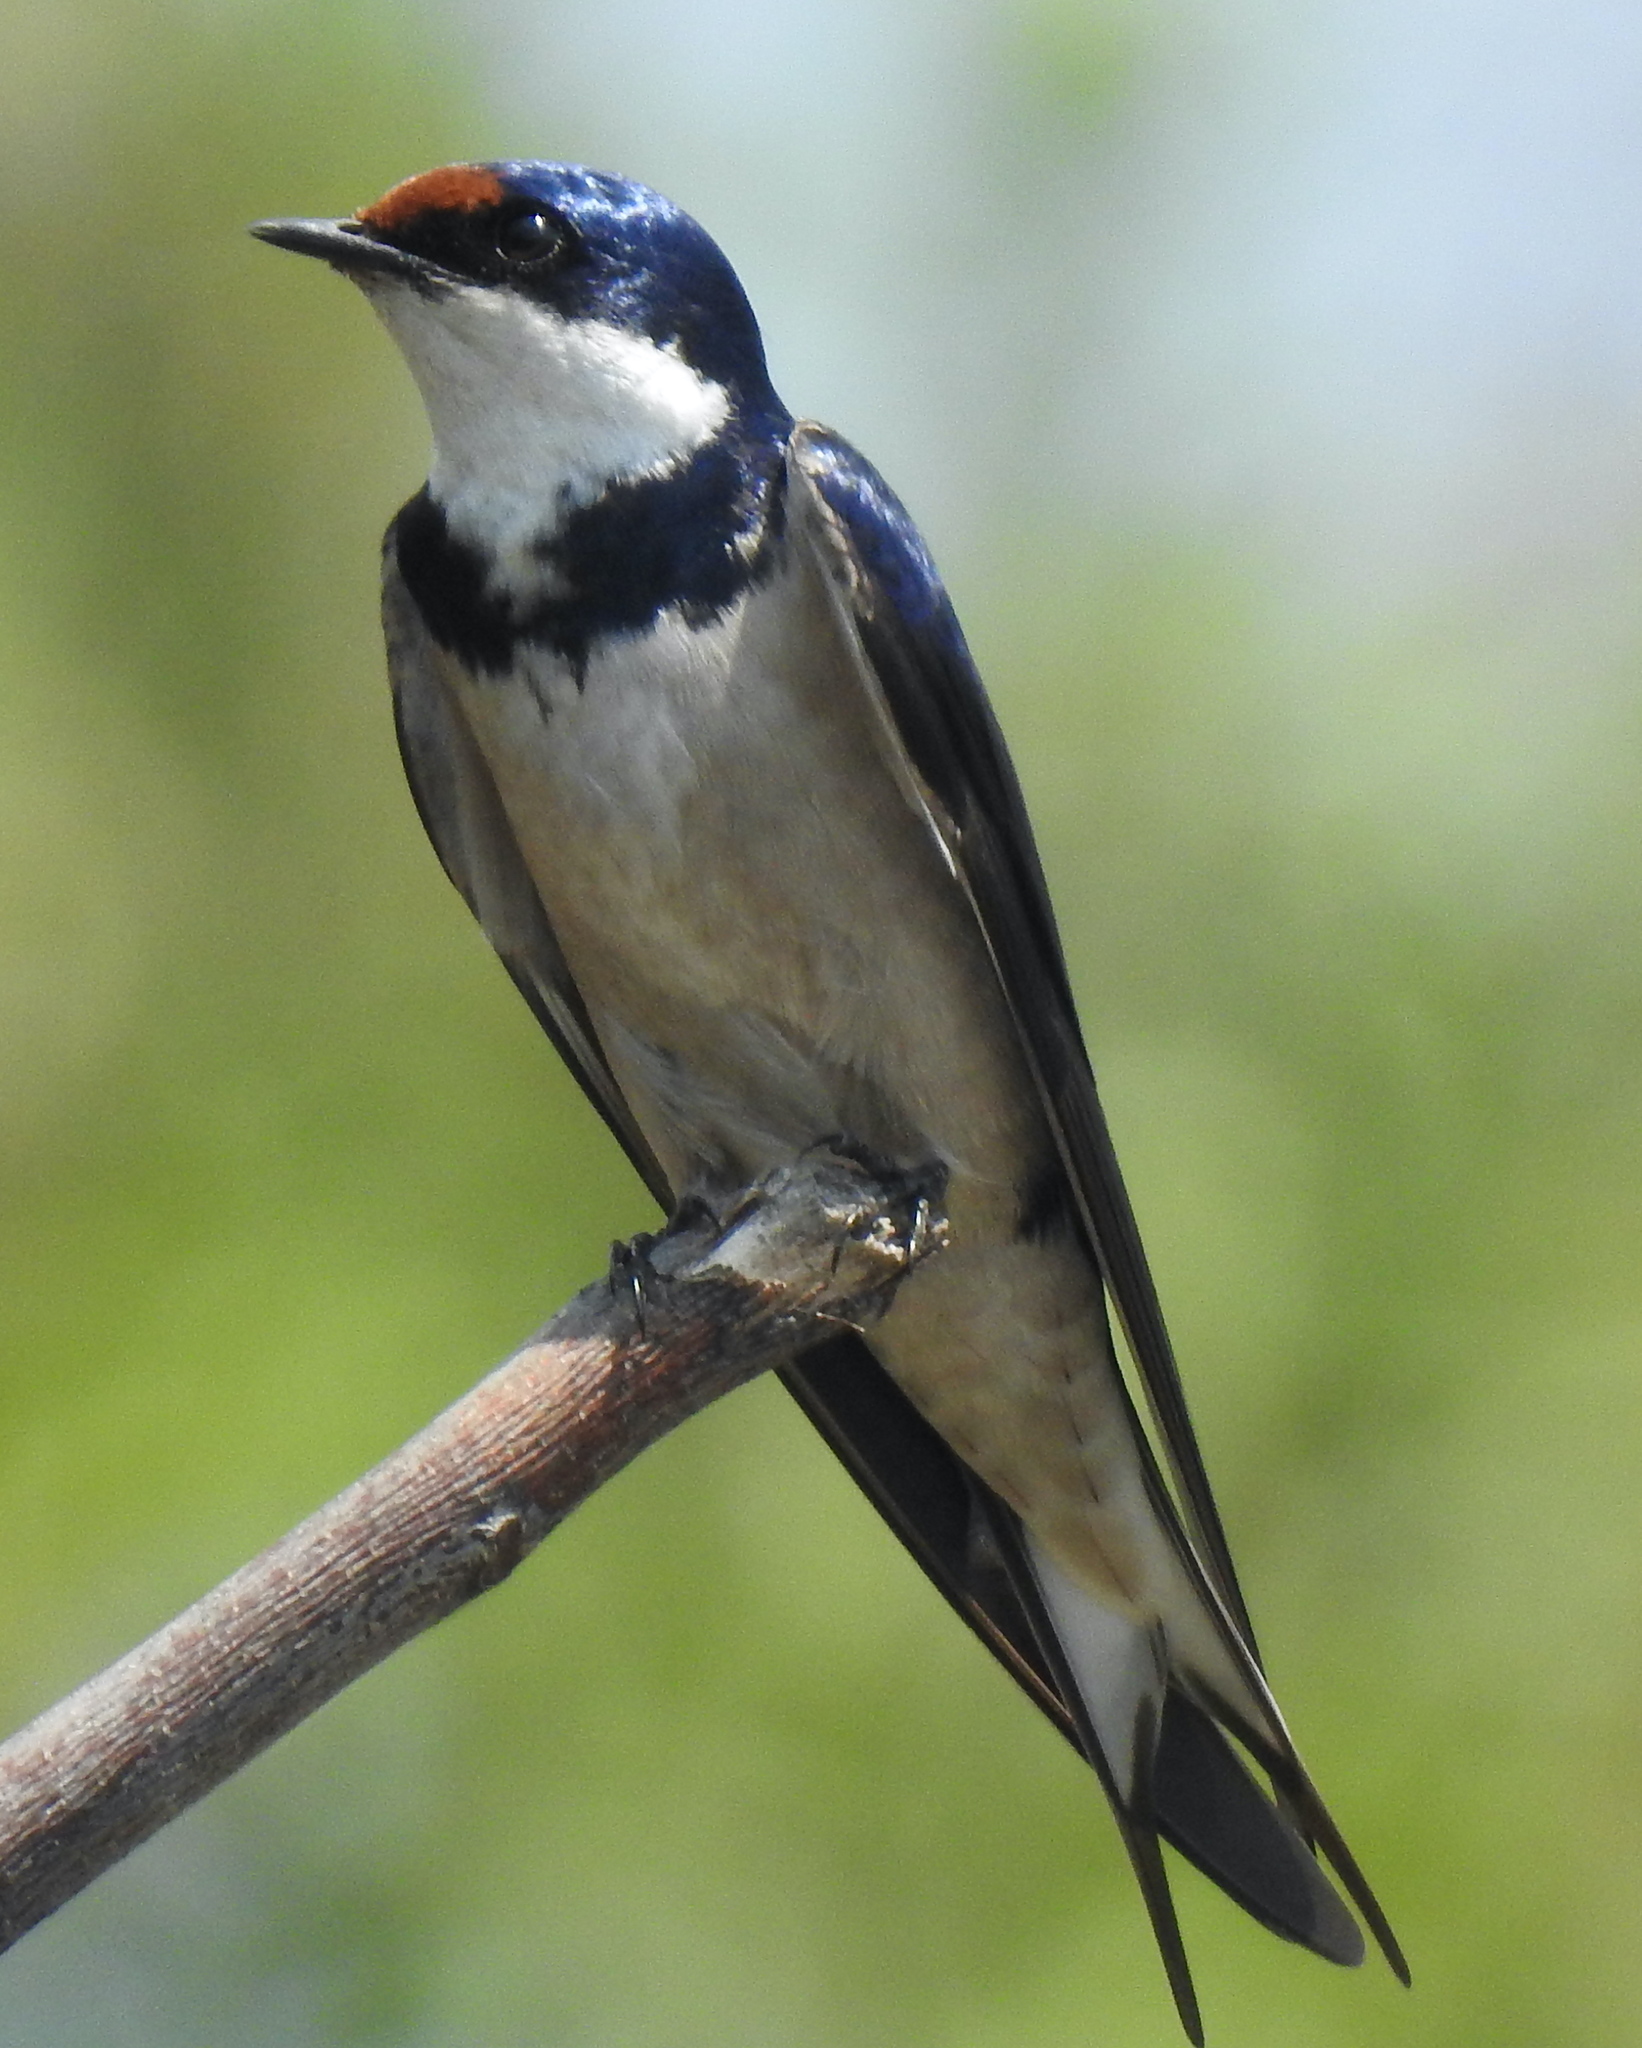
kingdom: Animalia
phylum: Chordata
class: Aves
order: Passeriformes
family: Hirundinidae
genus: Hirundo
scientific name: Hirundo albigularis
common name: White-throated swallow
